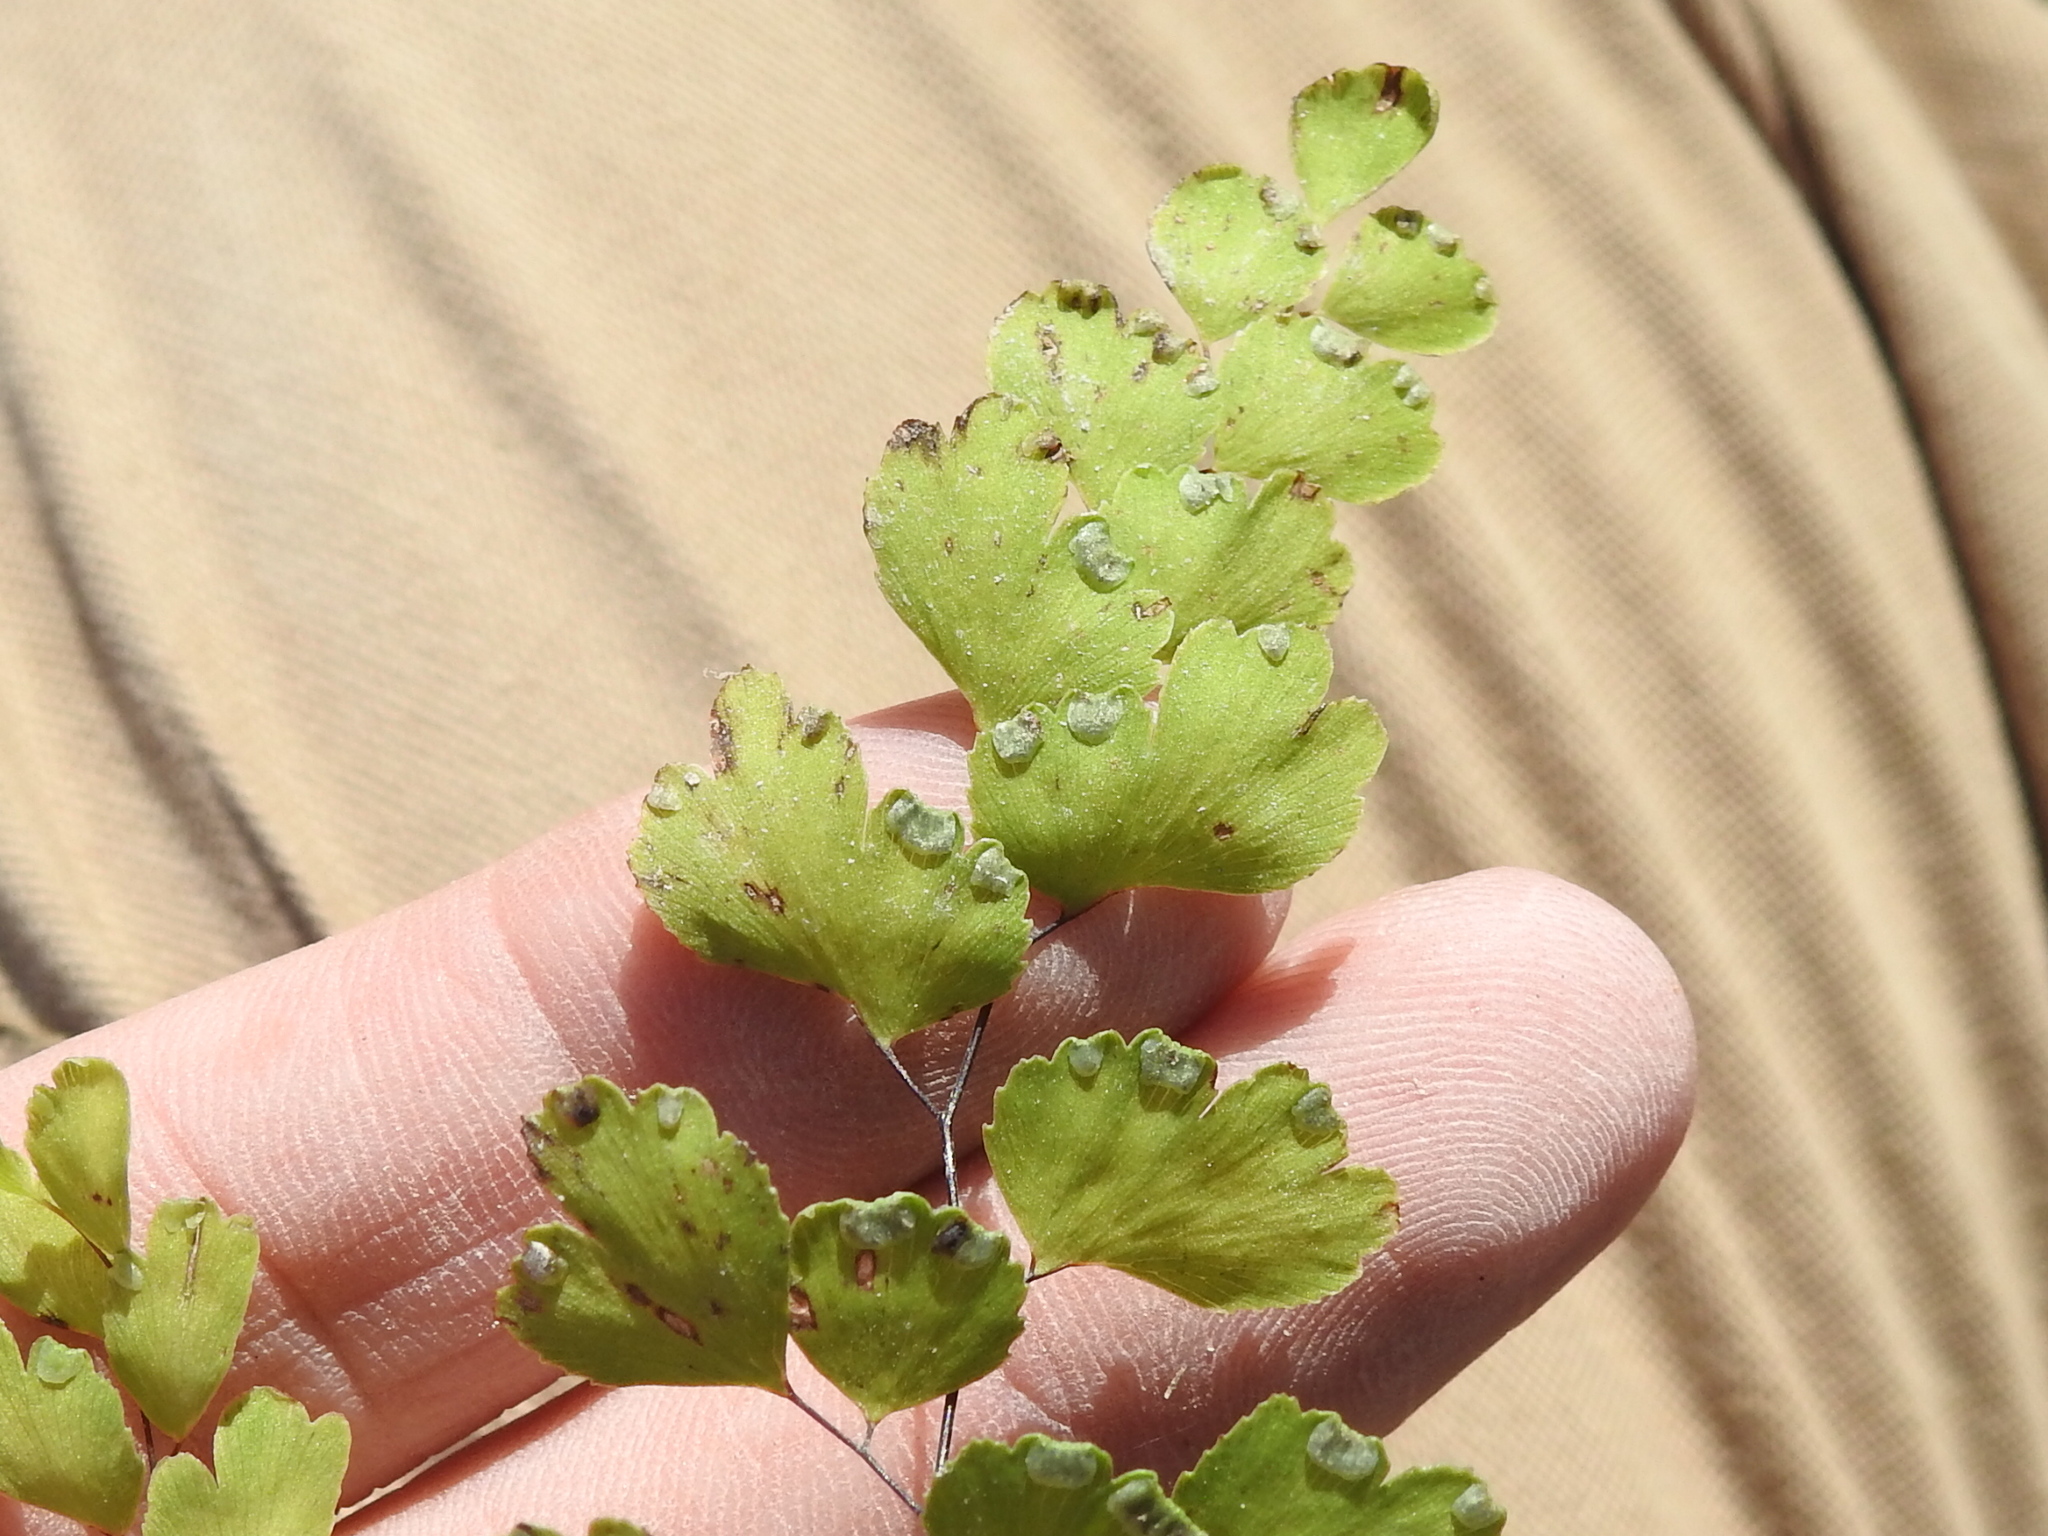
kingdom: Plantae
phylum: Tracheophyta
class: Polypodiopsida
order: Polypodiales
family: Pteridaceae
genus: Adiantum
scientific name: Adiantum capillus-veneris
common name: Maidenhair fern
